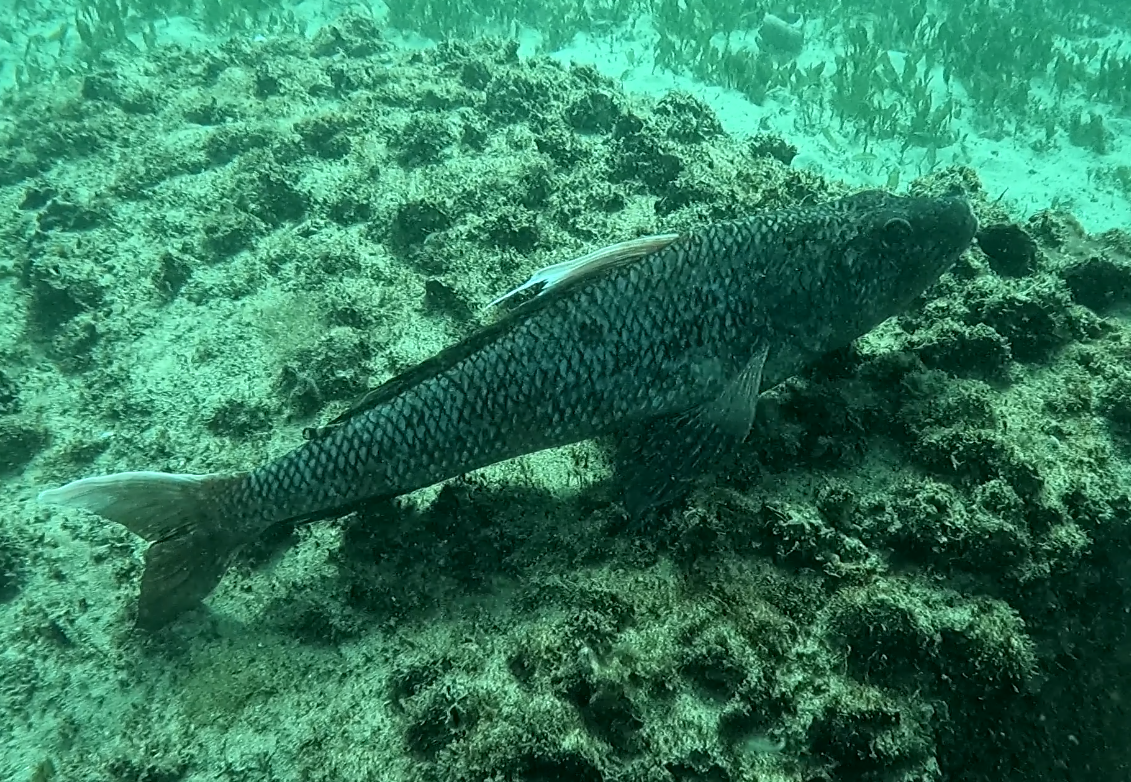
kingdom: Animalia
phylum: Chordata
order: Aulopiformes
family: Aulopidae
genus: Latropiscis
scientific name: Latropiscis purpurissatus
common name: Sergeant baker
